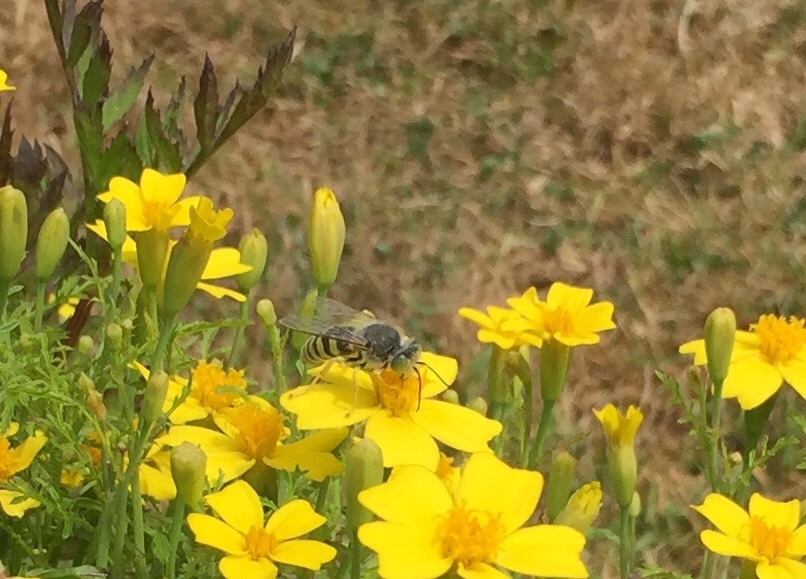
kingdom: Animalia
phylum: Arthropoda
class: Insecta
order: Hymenoptera
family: Crabronidae
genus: Bembix
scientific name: Bembix americana
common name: American sand wasp
